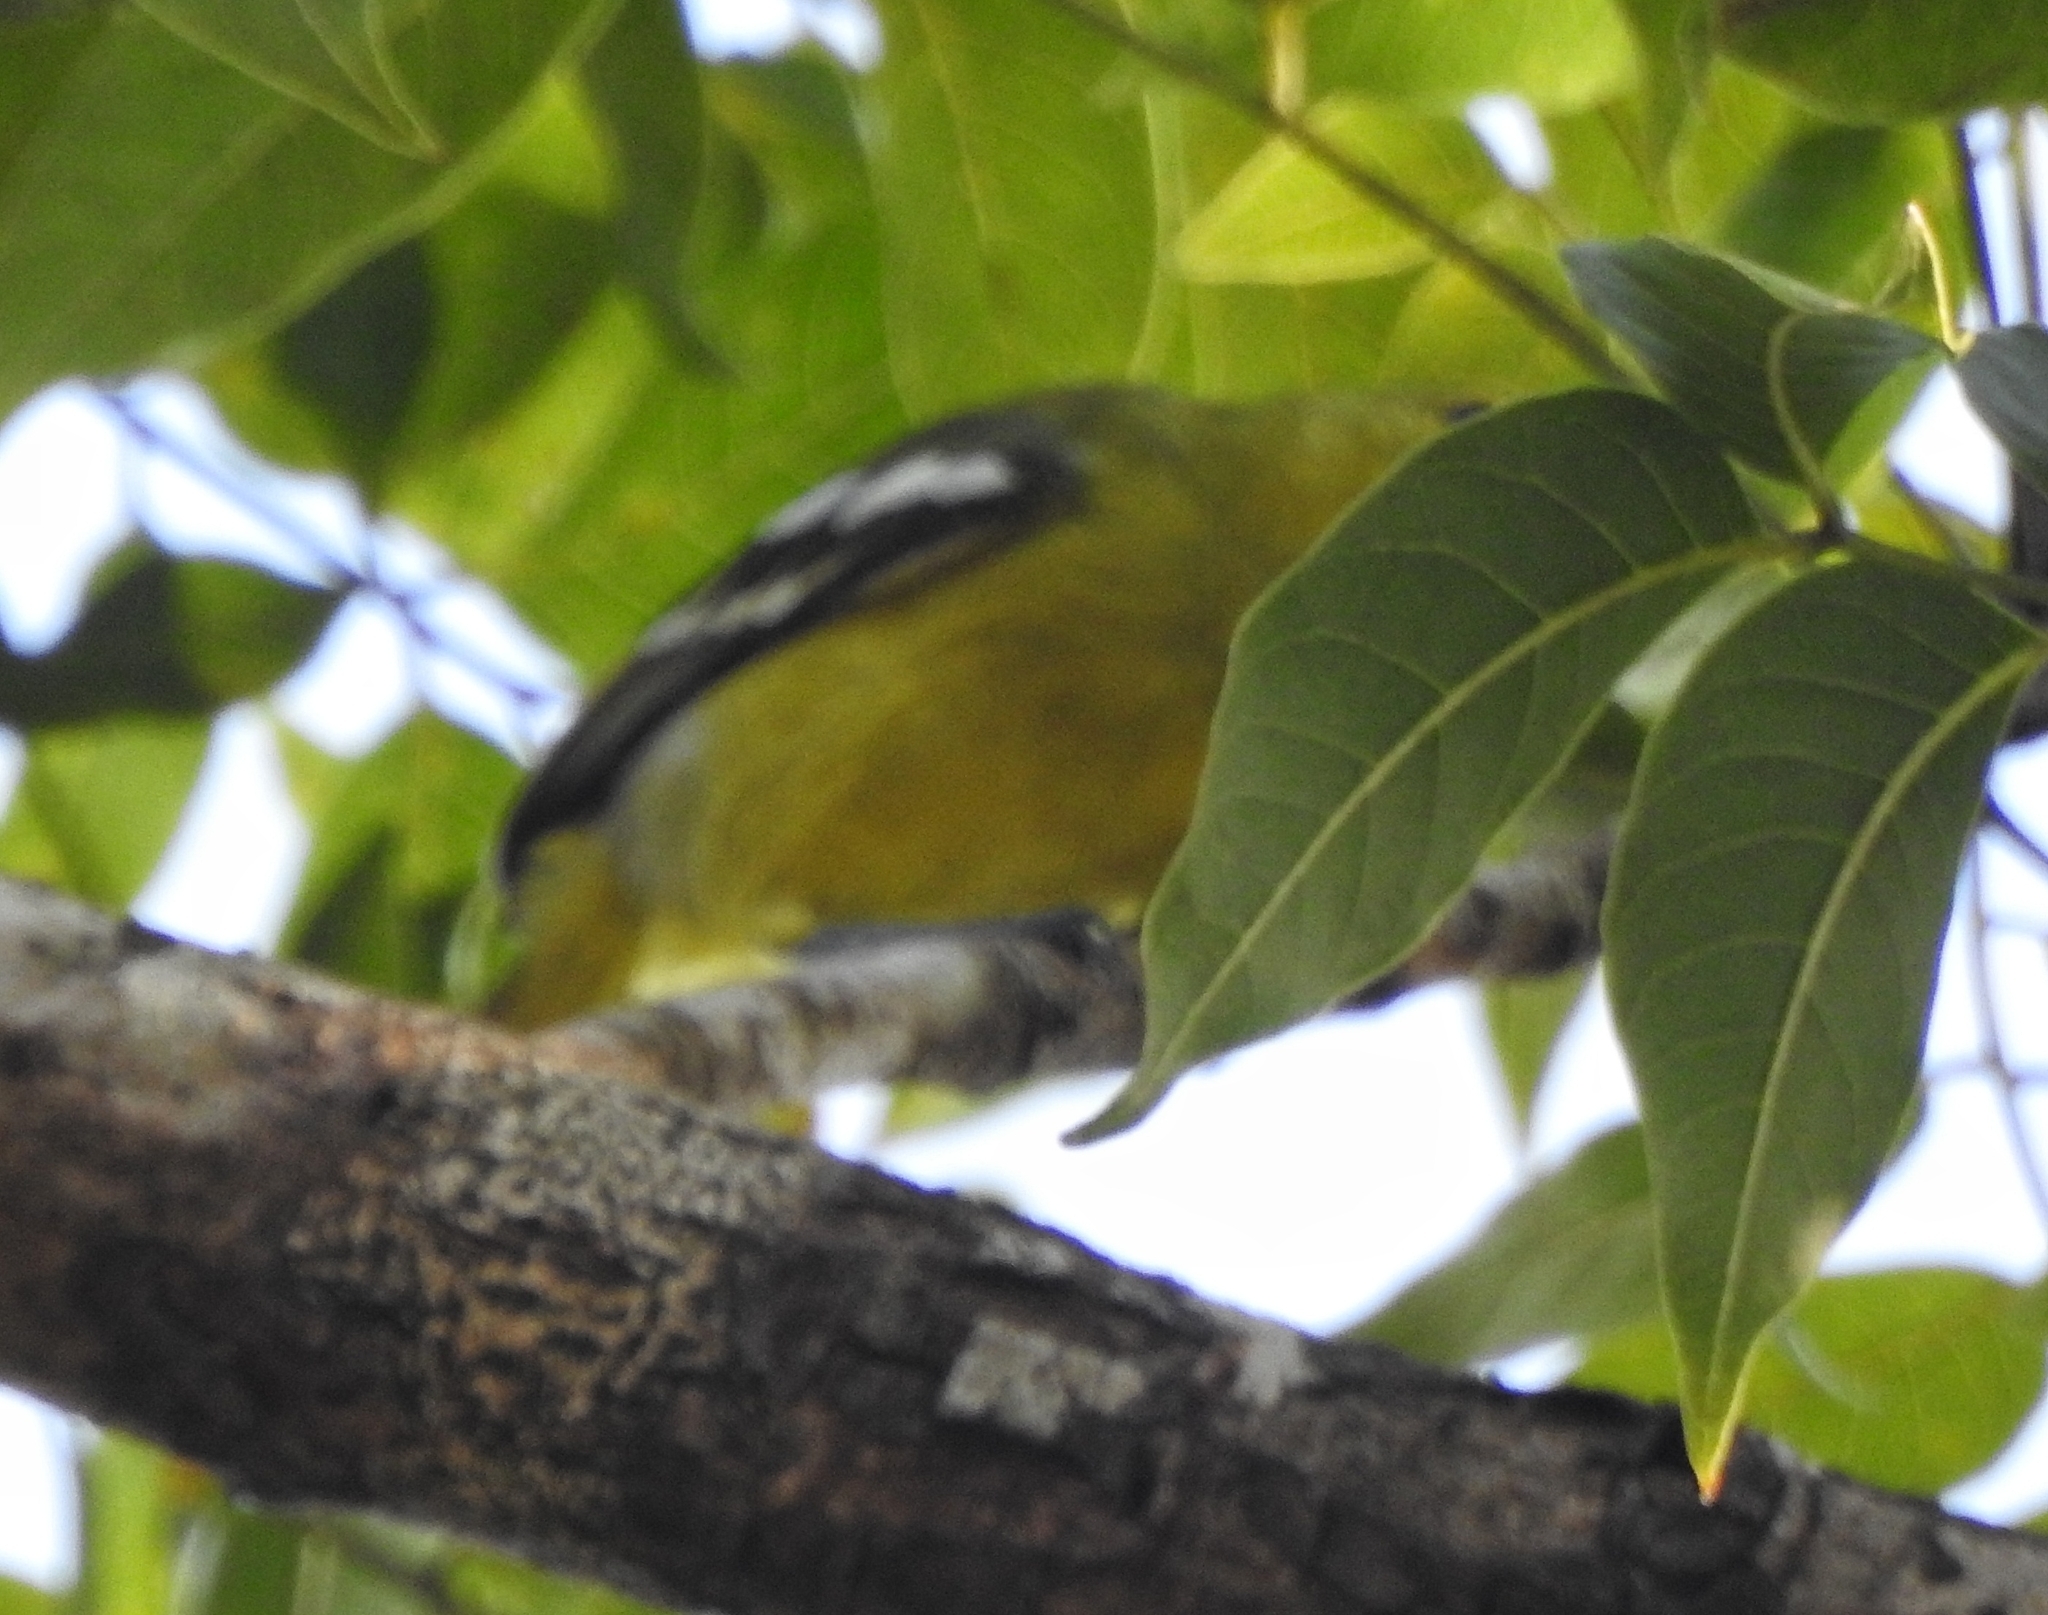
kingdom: Animalia
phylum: Chordata
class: Aves
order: Passeriformes
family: Aegithinidae
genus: Aegithina
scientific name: Aegithina tiphia
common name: Common iora
